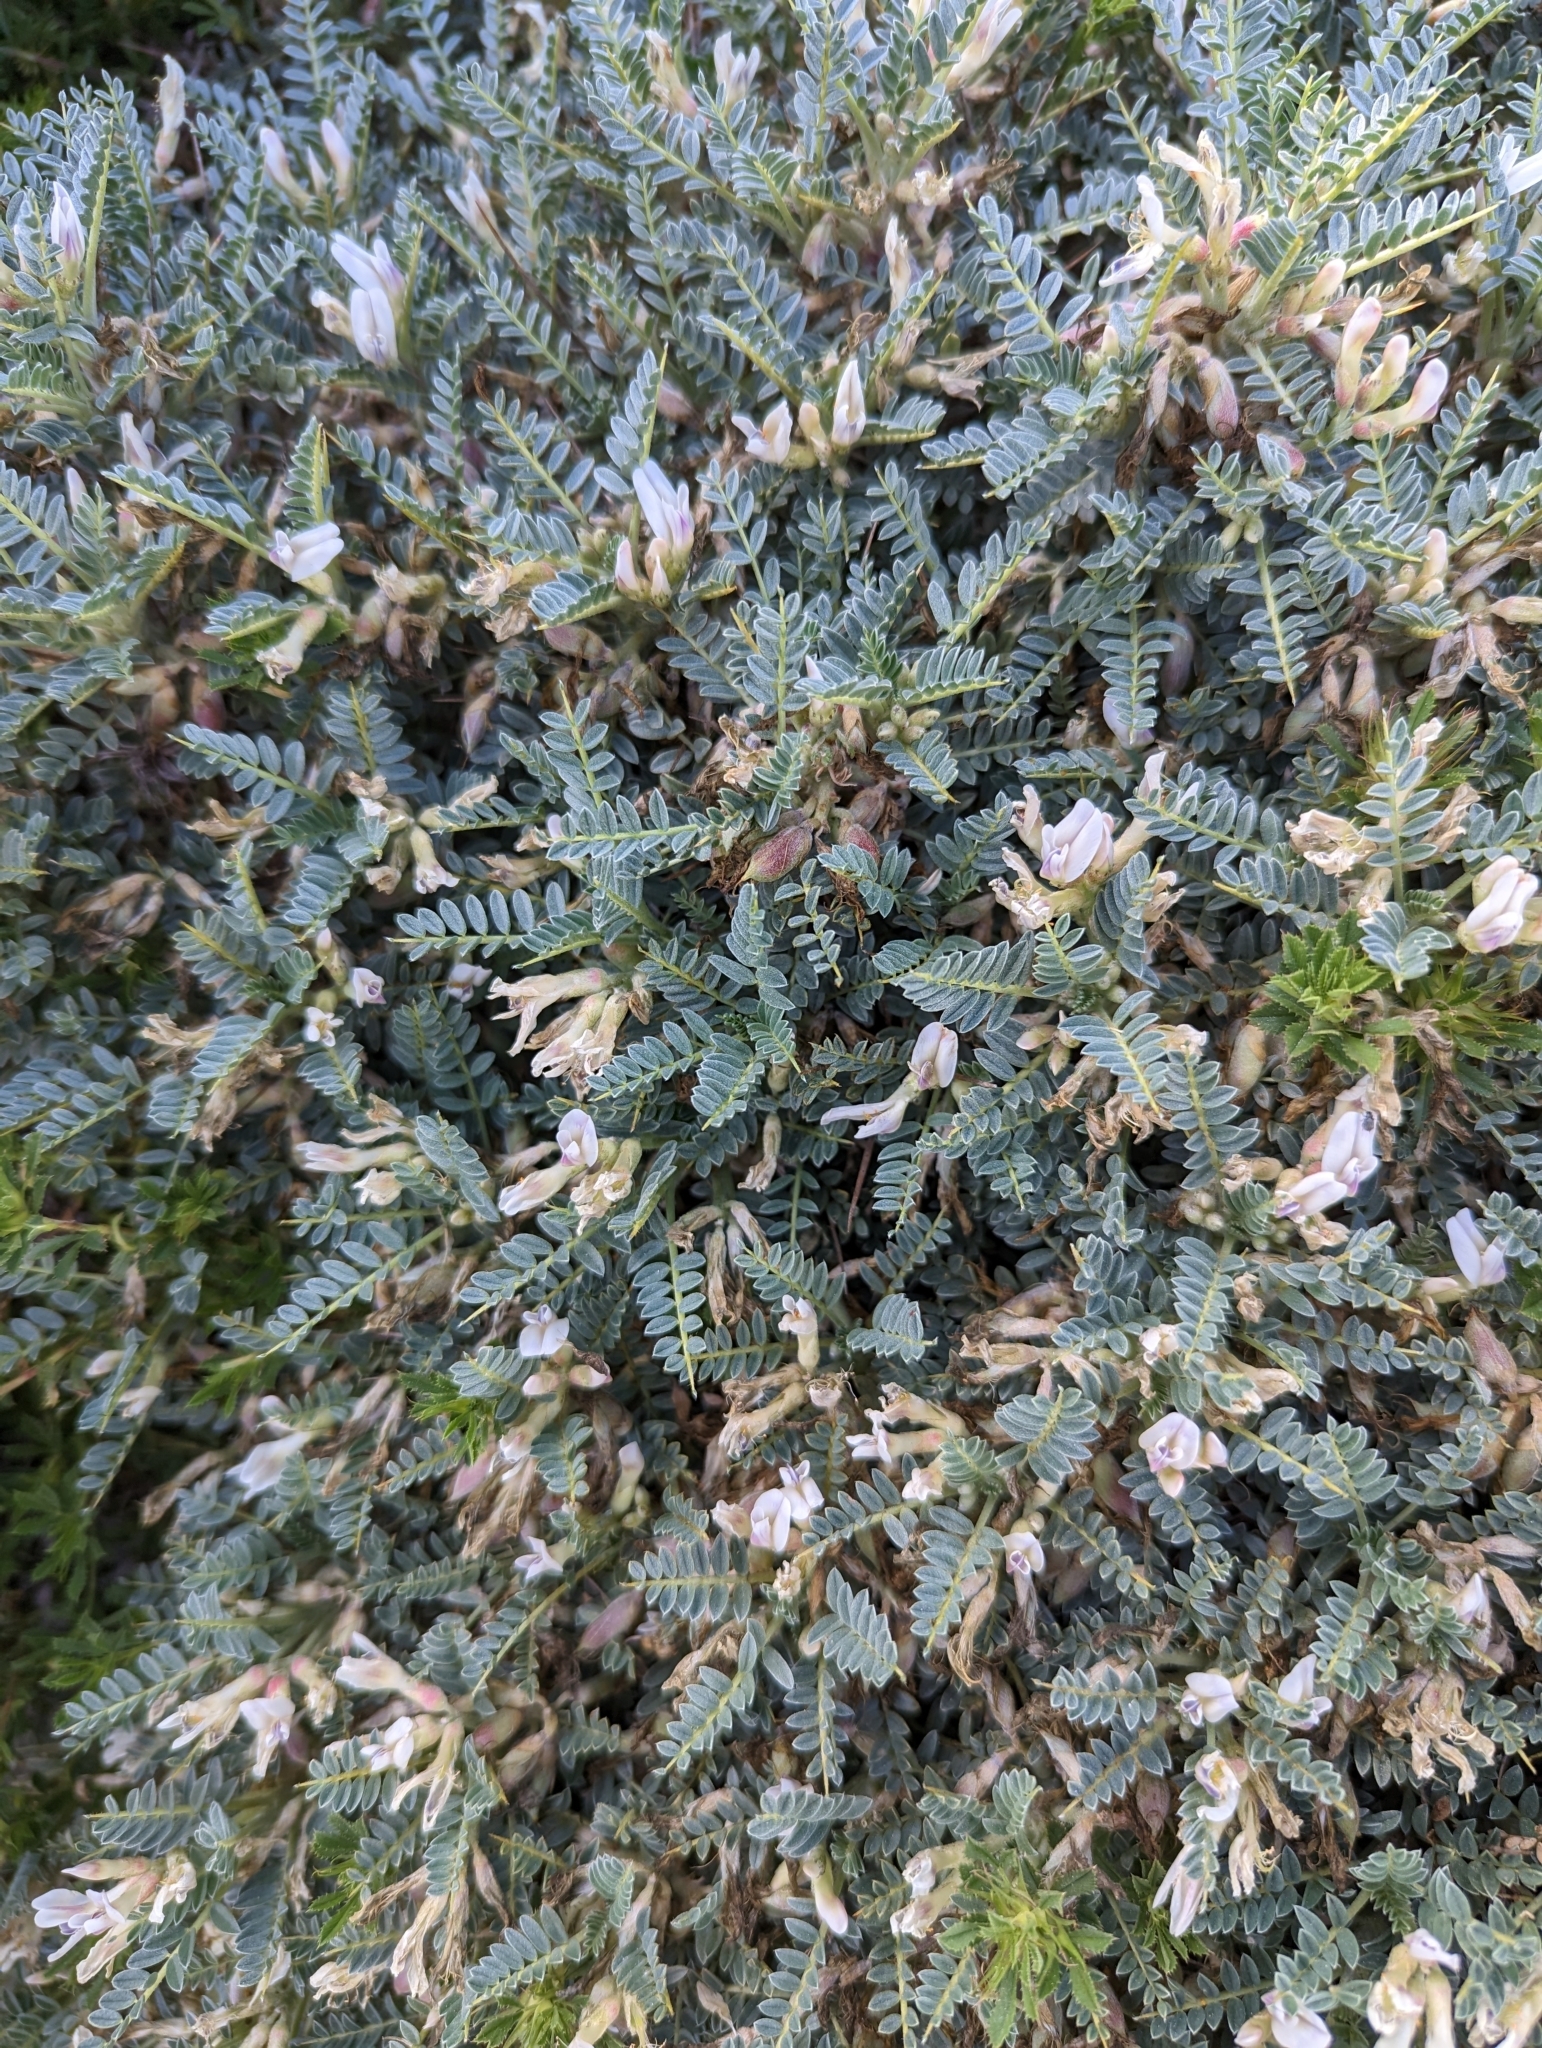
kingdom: Plantae
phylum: Tracheophyta
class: Magnoliopsida
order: Fabales
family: Fabaceae
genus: Astragalus
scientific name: Astragalus terraccianoi
